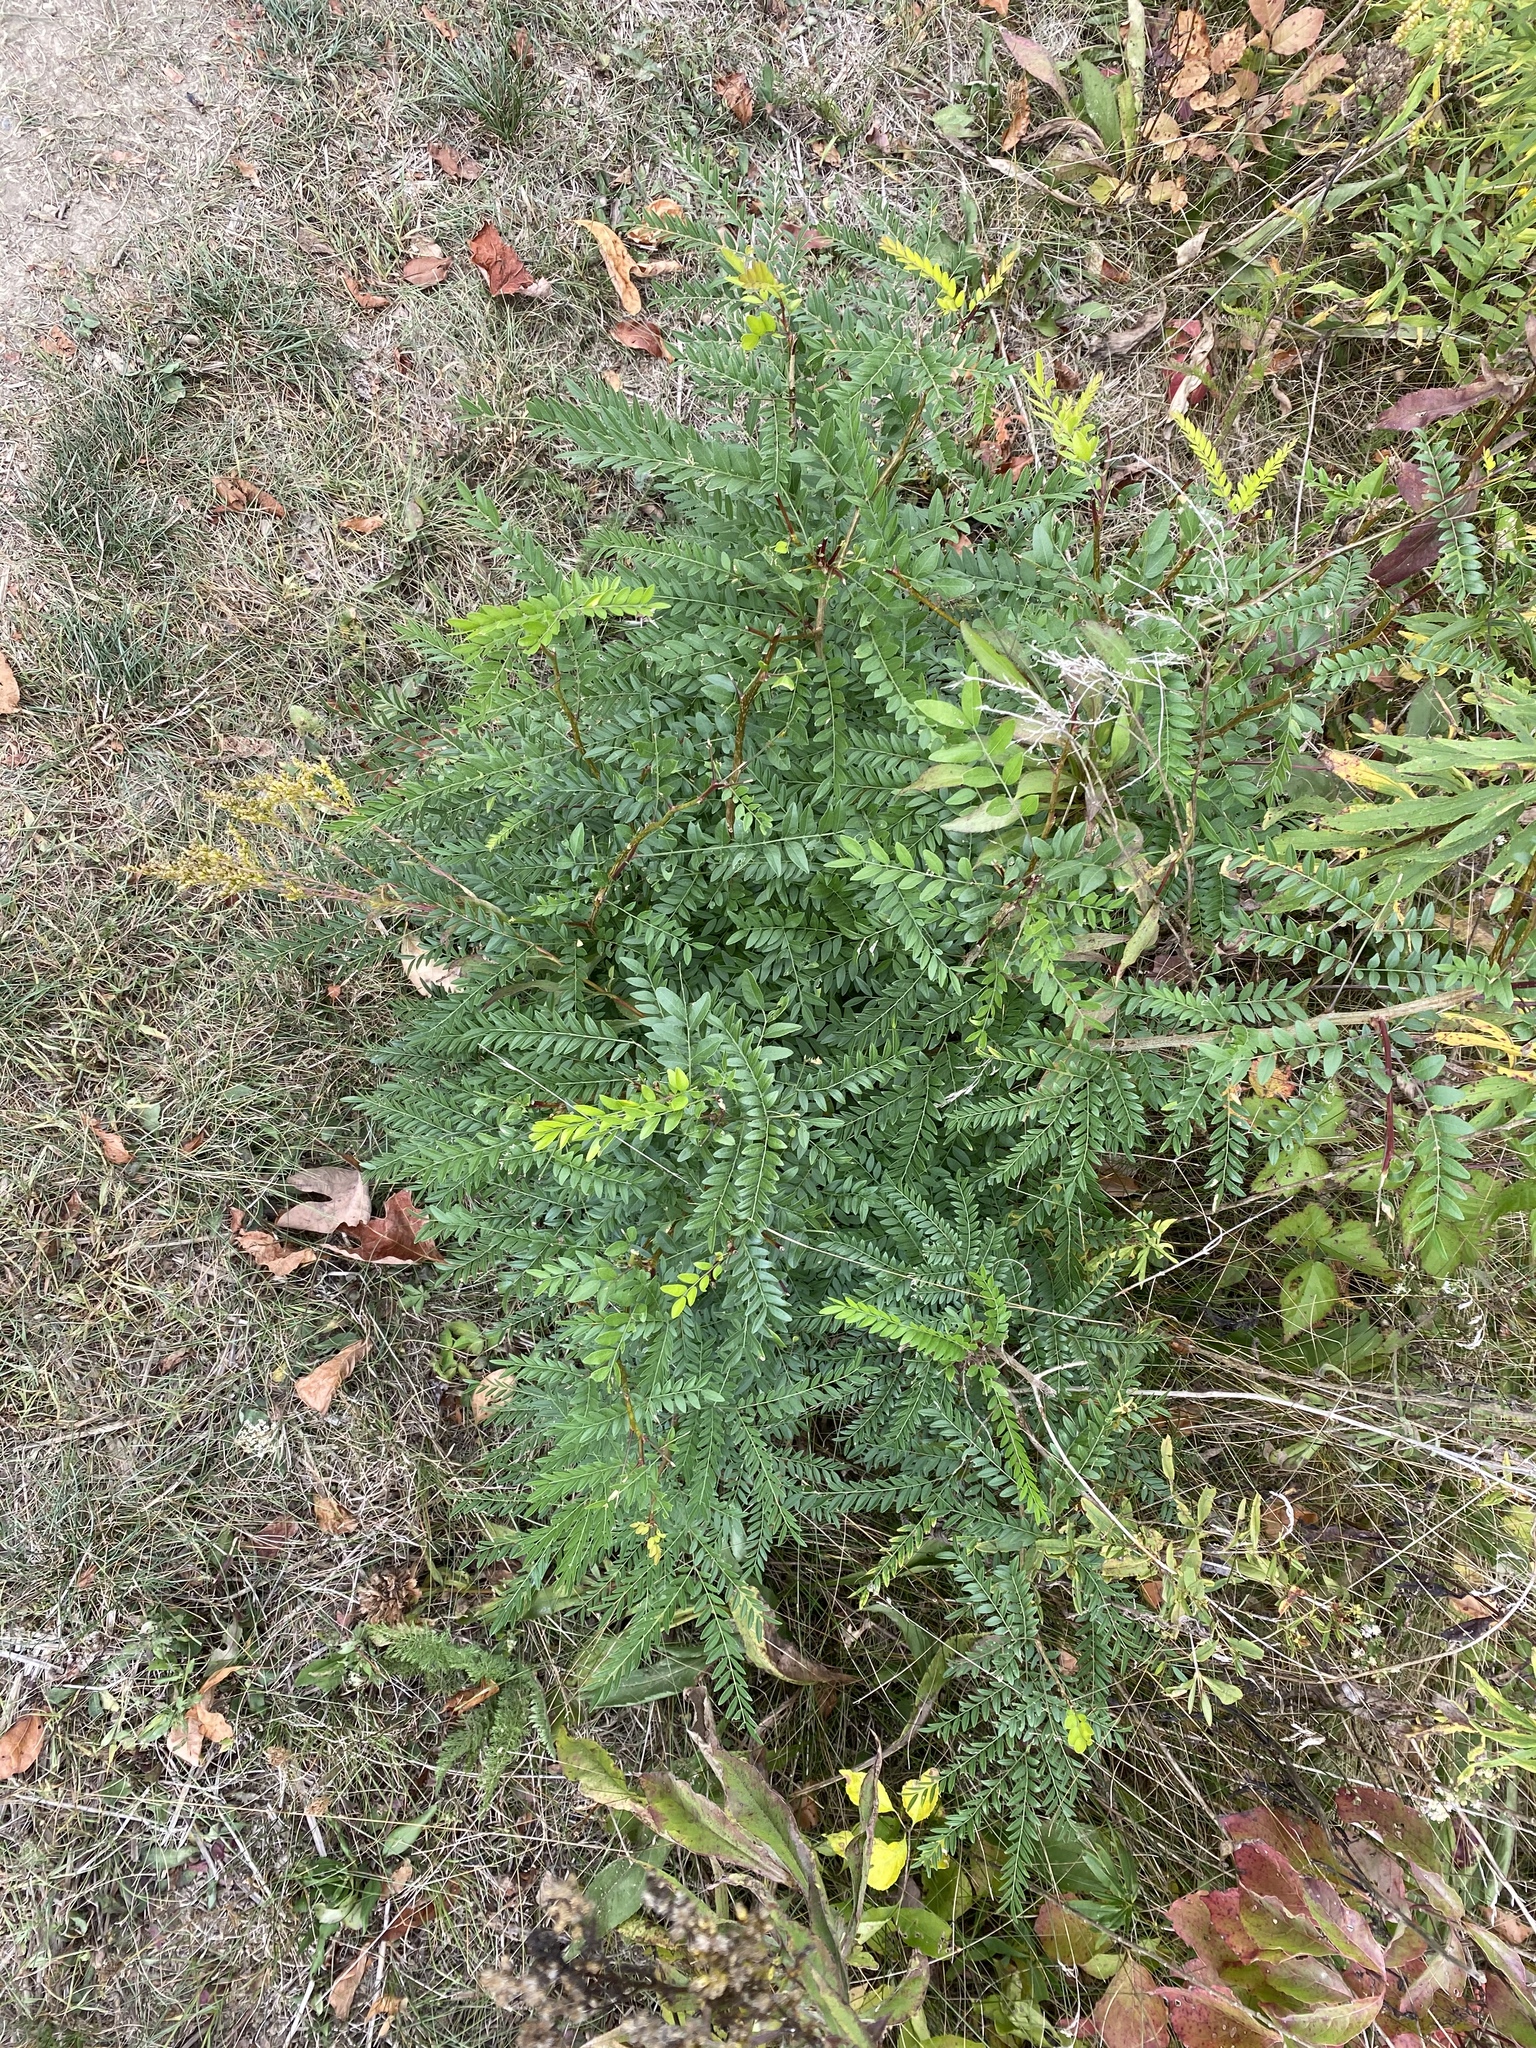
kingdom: Plantae
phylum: Tracheophyta
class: Magnoliopsida
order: Fabales
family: Fabaceae
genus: Gleditsia
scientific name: Gleditsia triacanthos
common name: Common honeylocust
